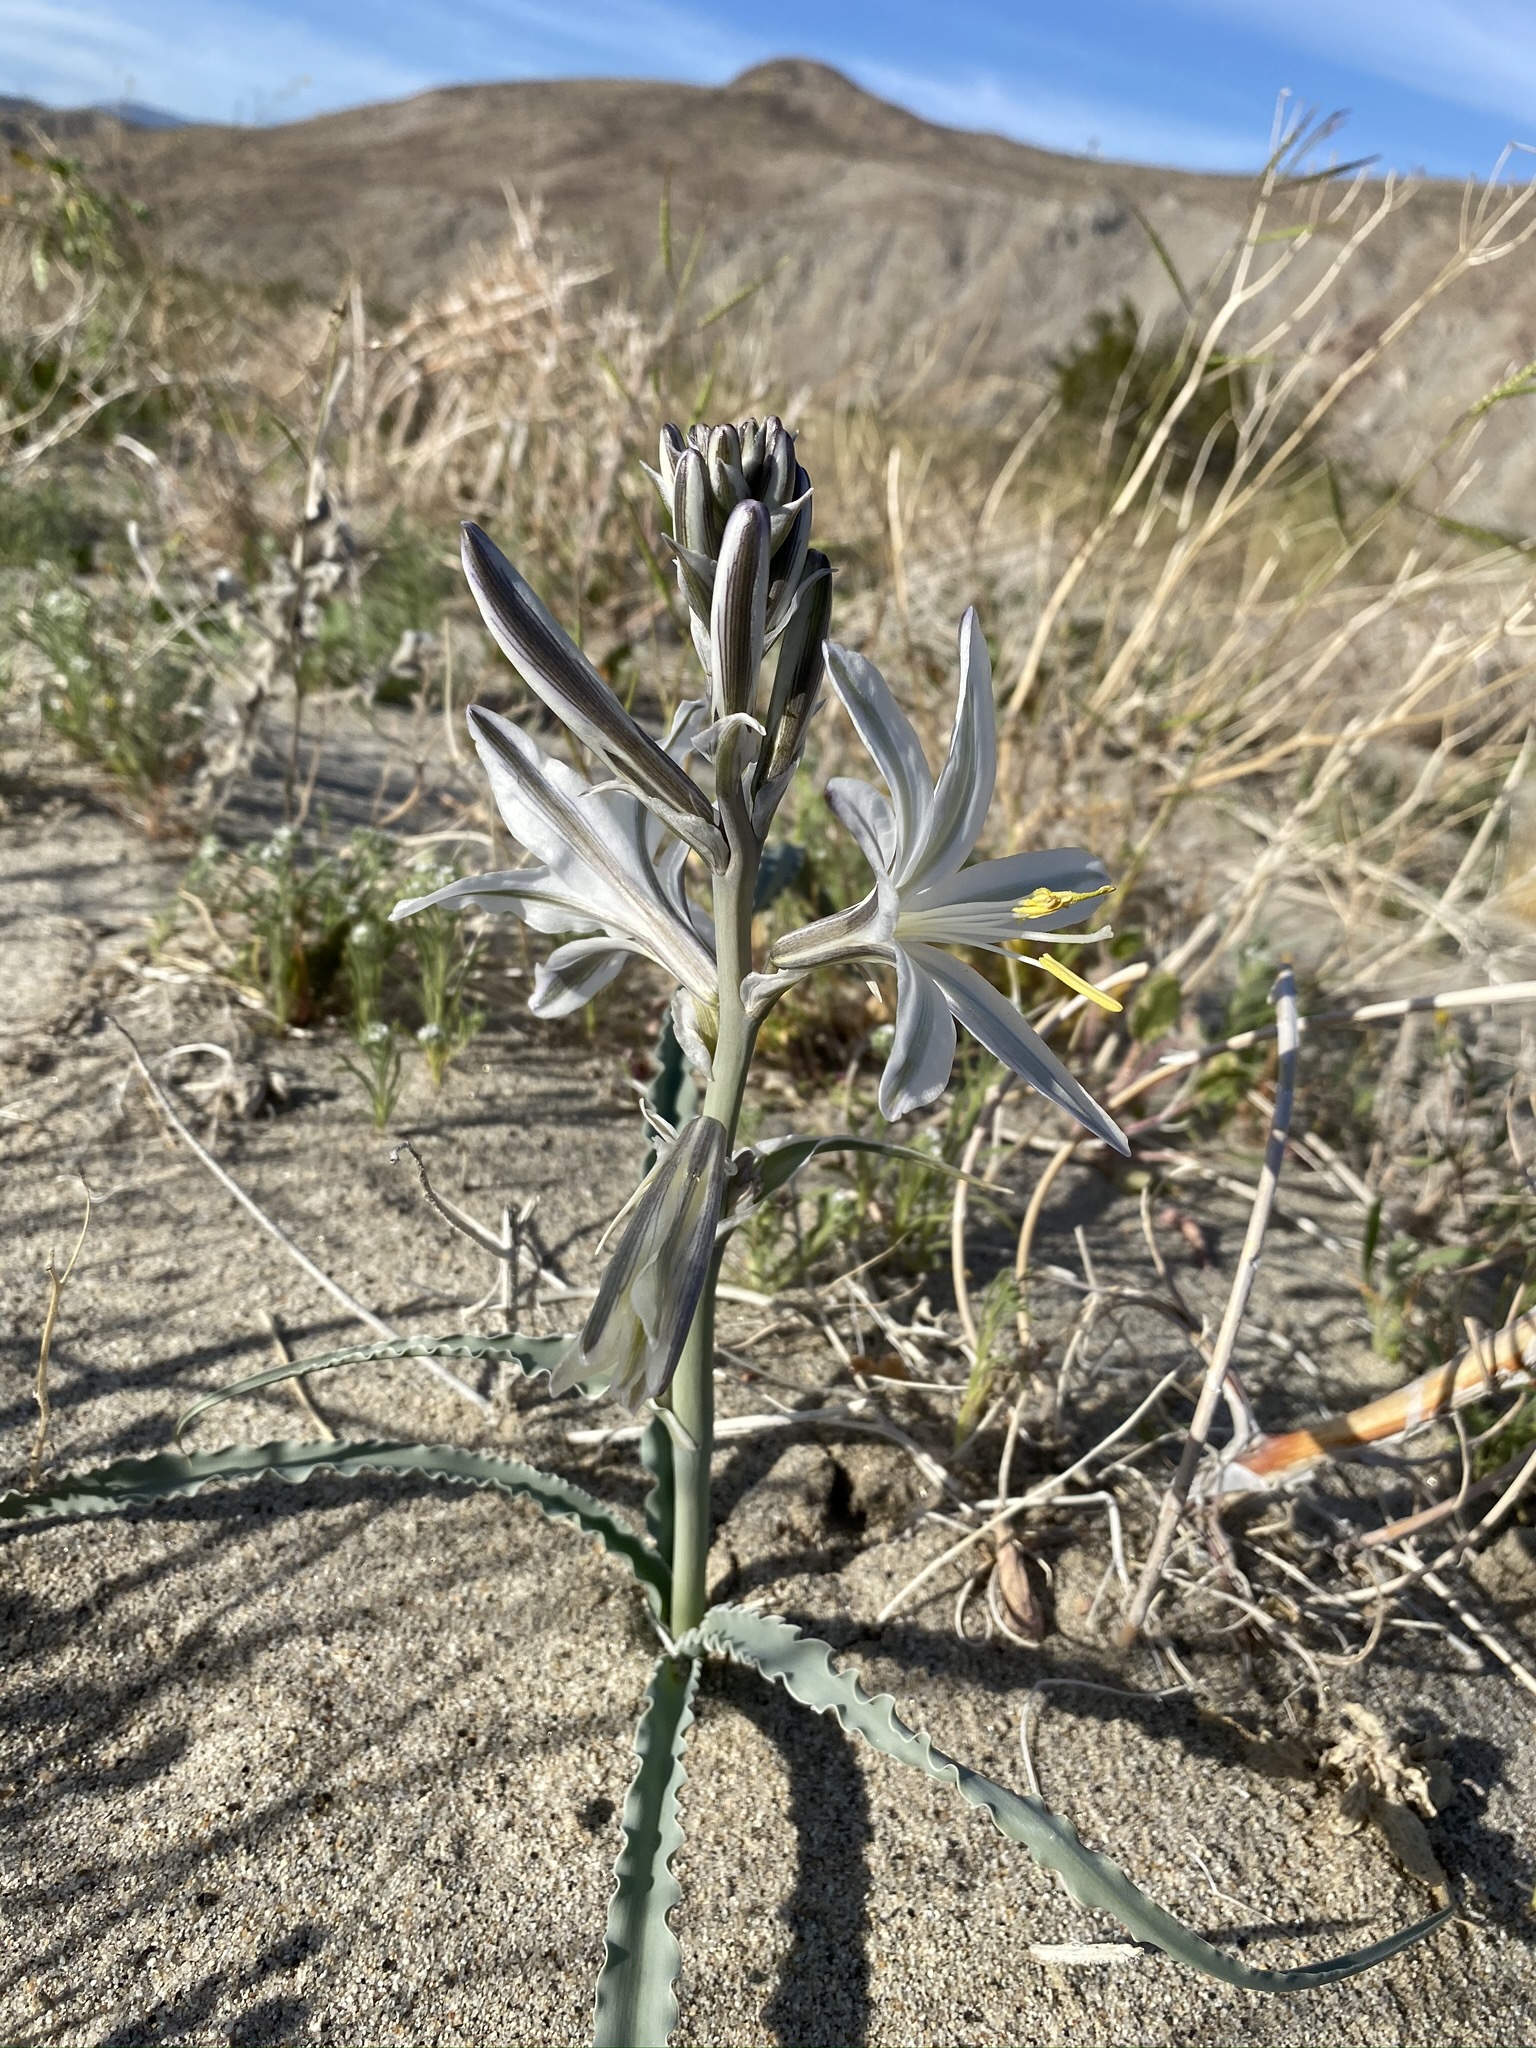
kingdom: Plantae
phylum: Tracheophyta
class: Liliopsida
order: Asparagales
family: Asparagaceae
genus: Hesperocallis
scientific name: Hesperocallis undulata
